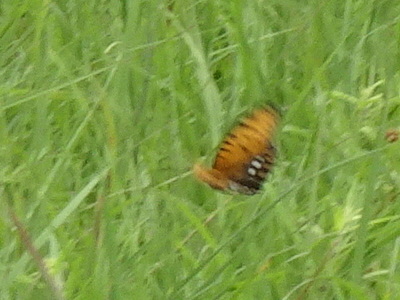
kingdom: Animalia
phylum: Arthropoda
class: Insecta
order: Lepidoptera
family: Nymphalidae
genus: Speyeria
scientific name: Speyeria idalia
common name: Regal fritillary
